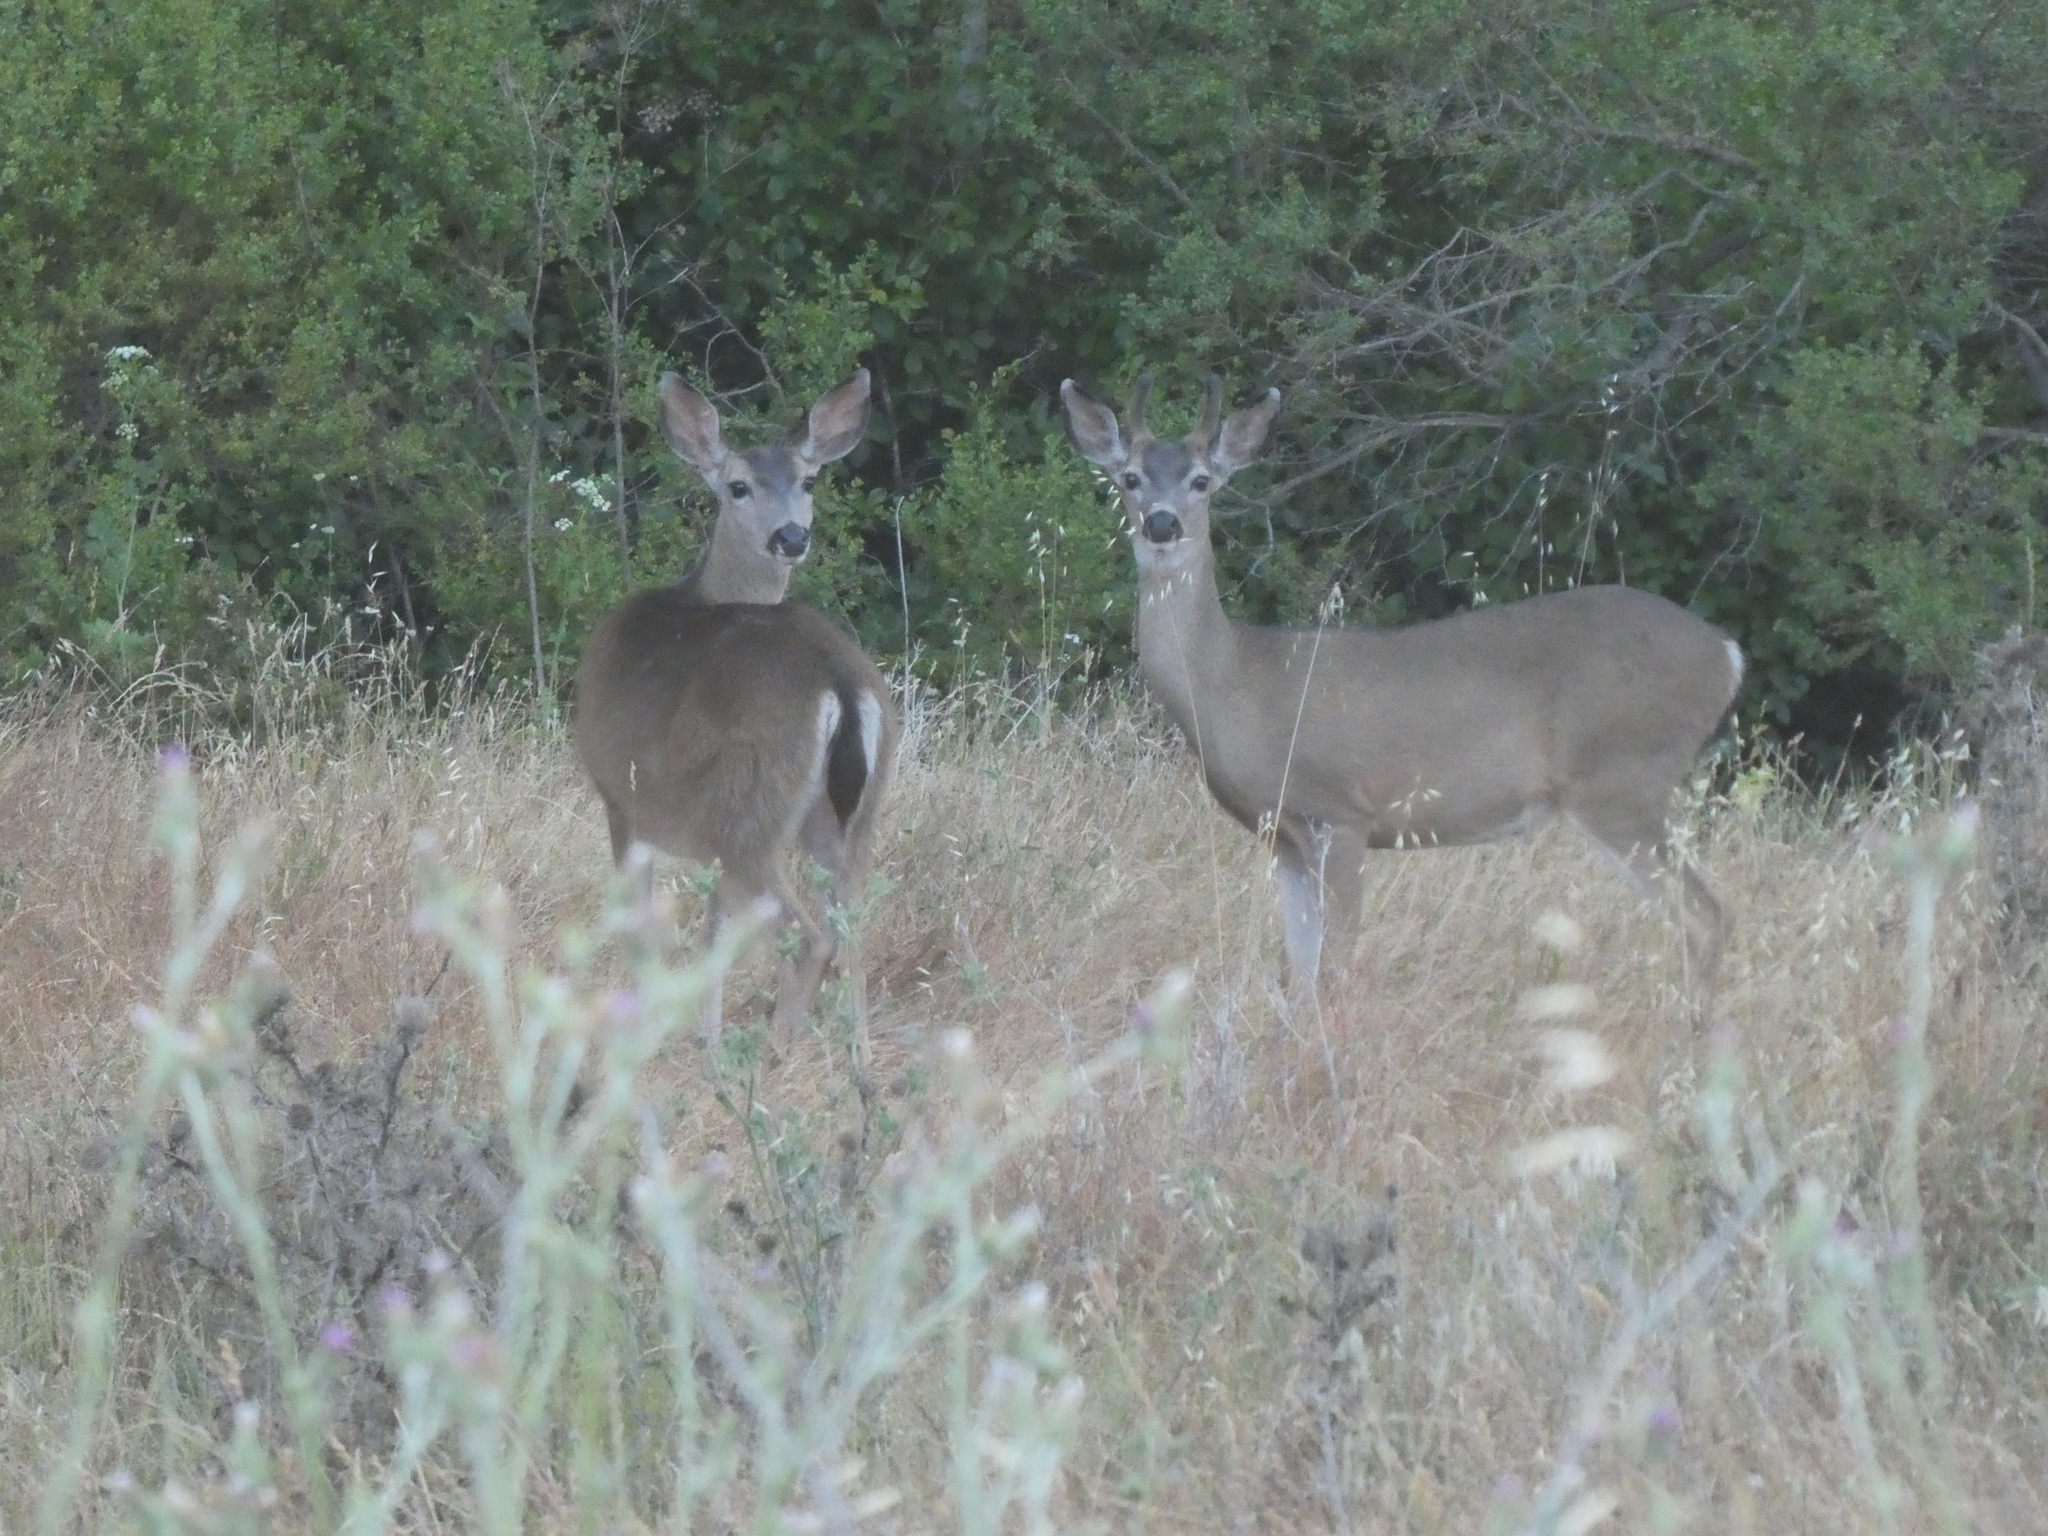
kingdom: Animalia
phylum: Chordata
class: Mammalia
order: Artiodactyla
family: Cervidae
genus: Odocoileus
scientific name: Odocoileus hemionus
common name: Mule deer
